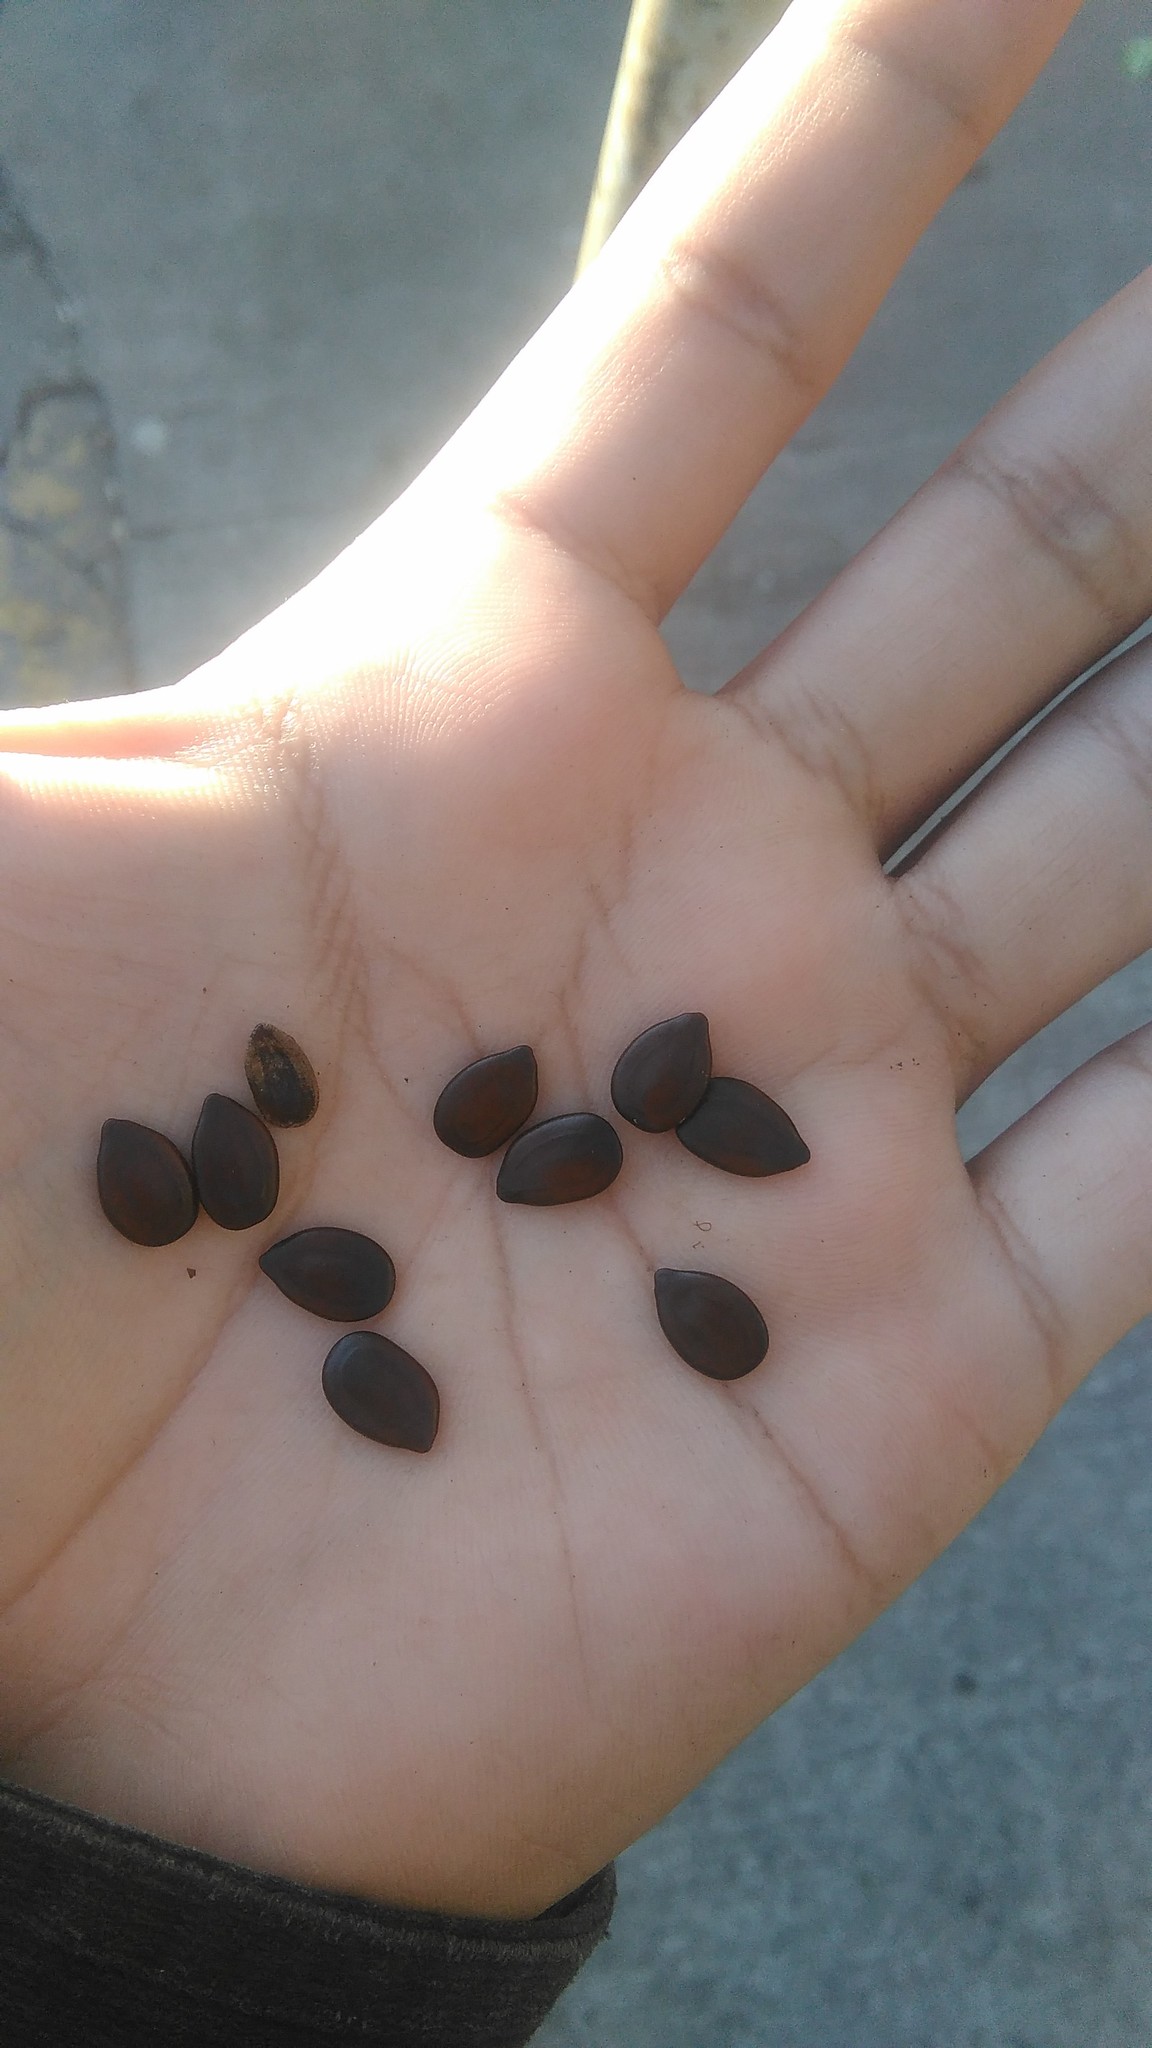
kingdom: Plantae
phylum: Tracheophyta
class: Magnoliopsida
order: Fabales
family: Fabaceae
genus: Leucaena
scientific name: Leucaena leucocephala
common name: White leadtree
